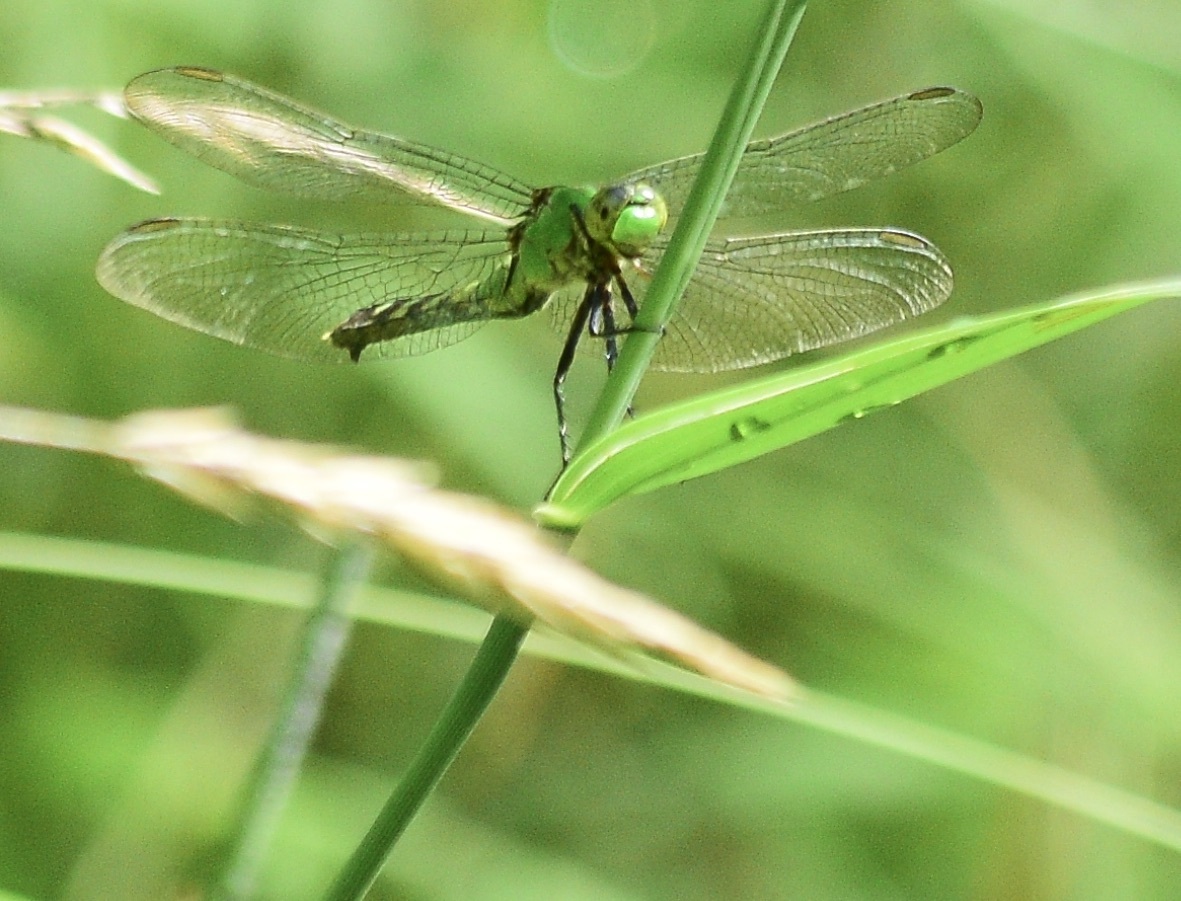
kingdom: Animalia
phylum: Arthropoda
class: Insecta
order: Odonata
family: Libellulidae
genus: Erythemis
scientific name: Erythemis simplicicollis
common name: Eastern pondhawk
